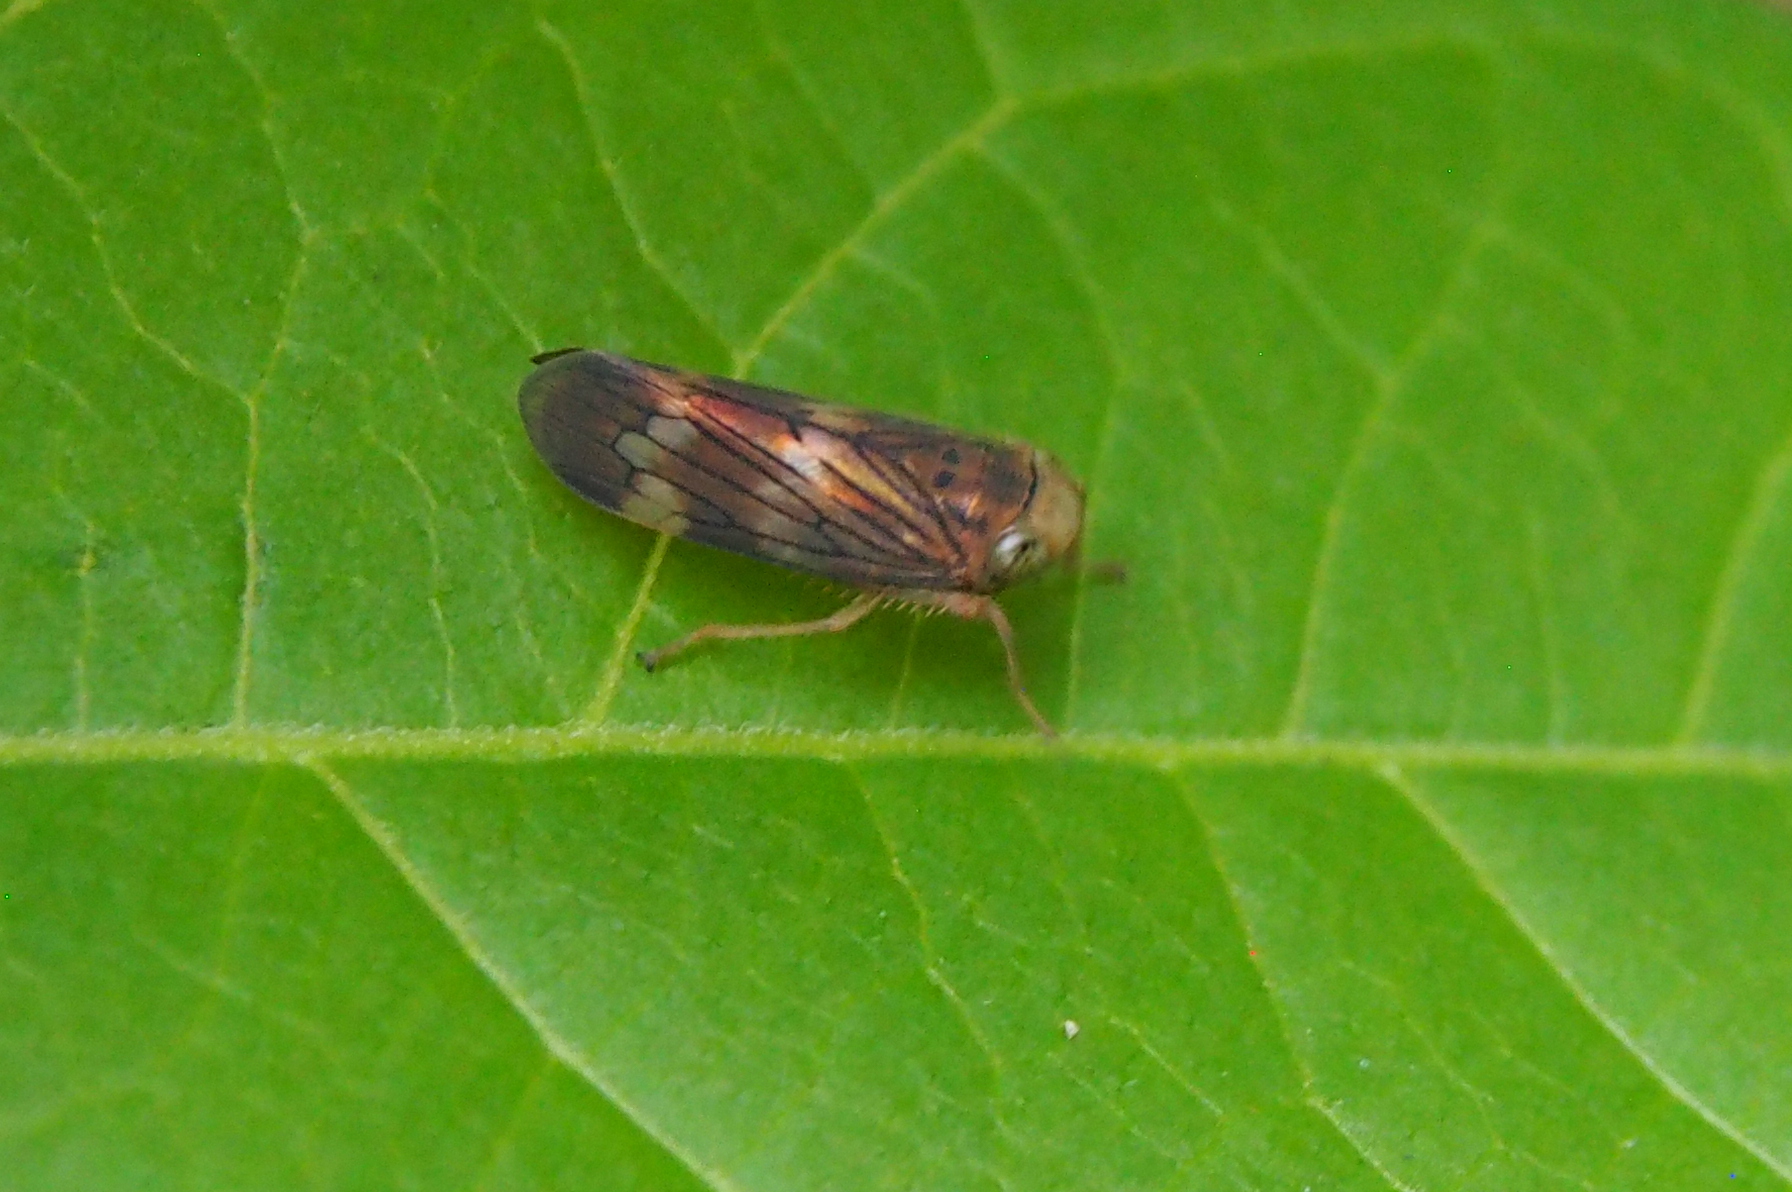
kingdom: Animalia
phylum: Arthropoda
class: Insecta
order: Hemiptera
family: Cicadellidae
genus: Jikradia
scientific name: Jikradia olitoria
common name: Coppery leafhopper
